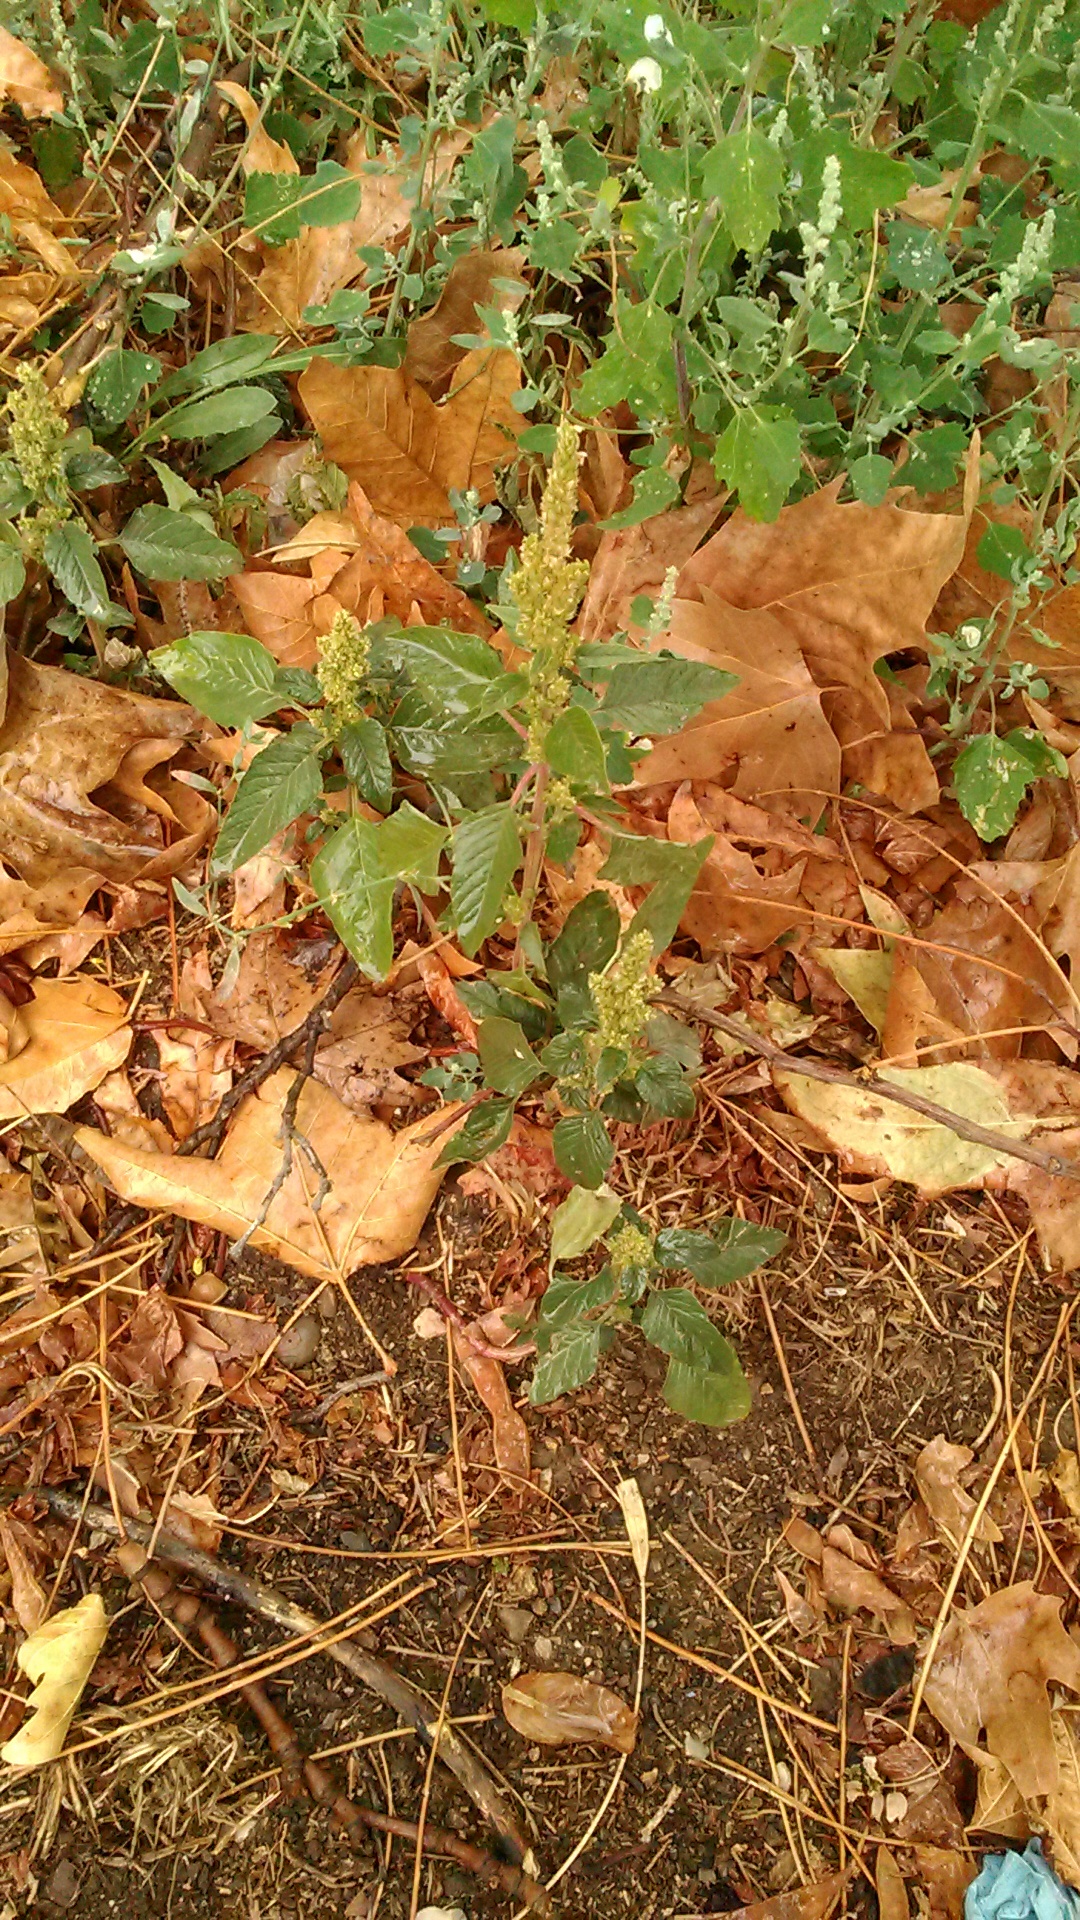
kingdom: Plantae
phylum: Tracheophyta
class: Magnoliopsida
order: Caryophyllales
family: Amaranthaceae
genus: Amaranthus
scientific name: Amaranthus retroflexus
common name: Redroot amaranth
